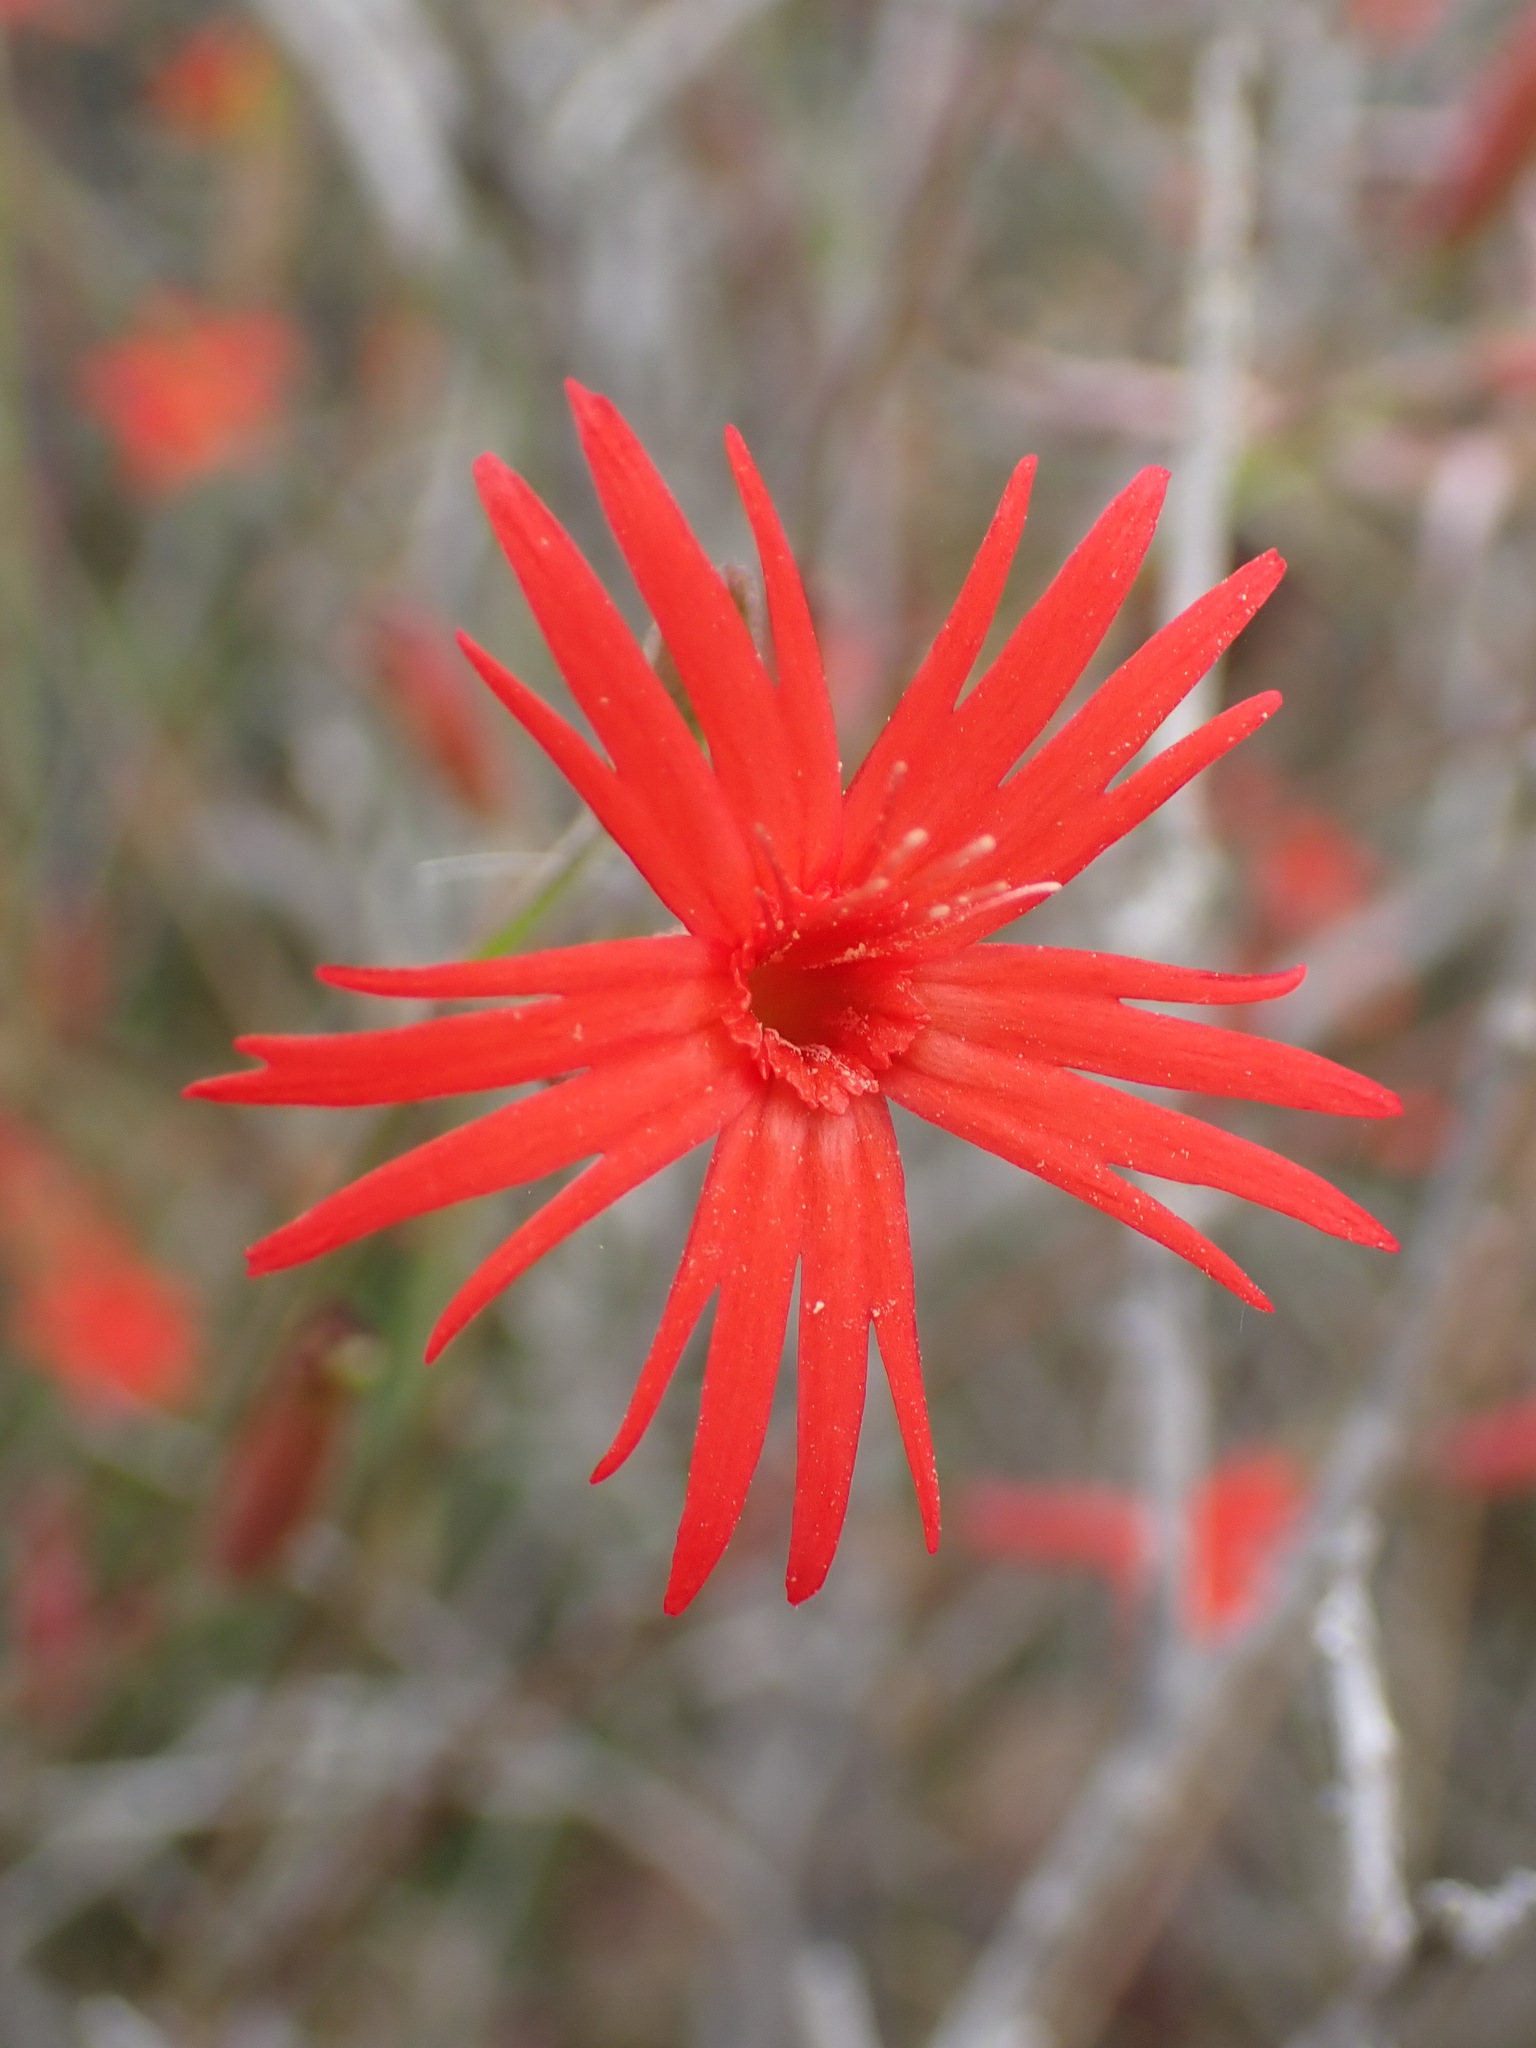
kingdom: Plantae
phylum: Tracheophyta
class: Magnoliopsida
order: Caryophyllales
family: Caryophyllaceae
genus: Silene
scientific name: Silene laciniata
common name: Indian-pink
